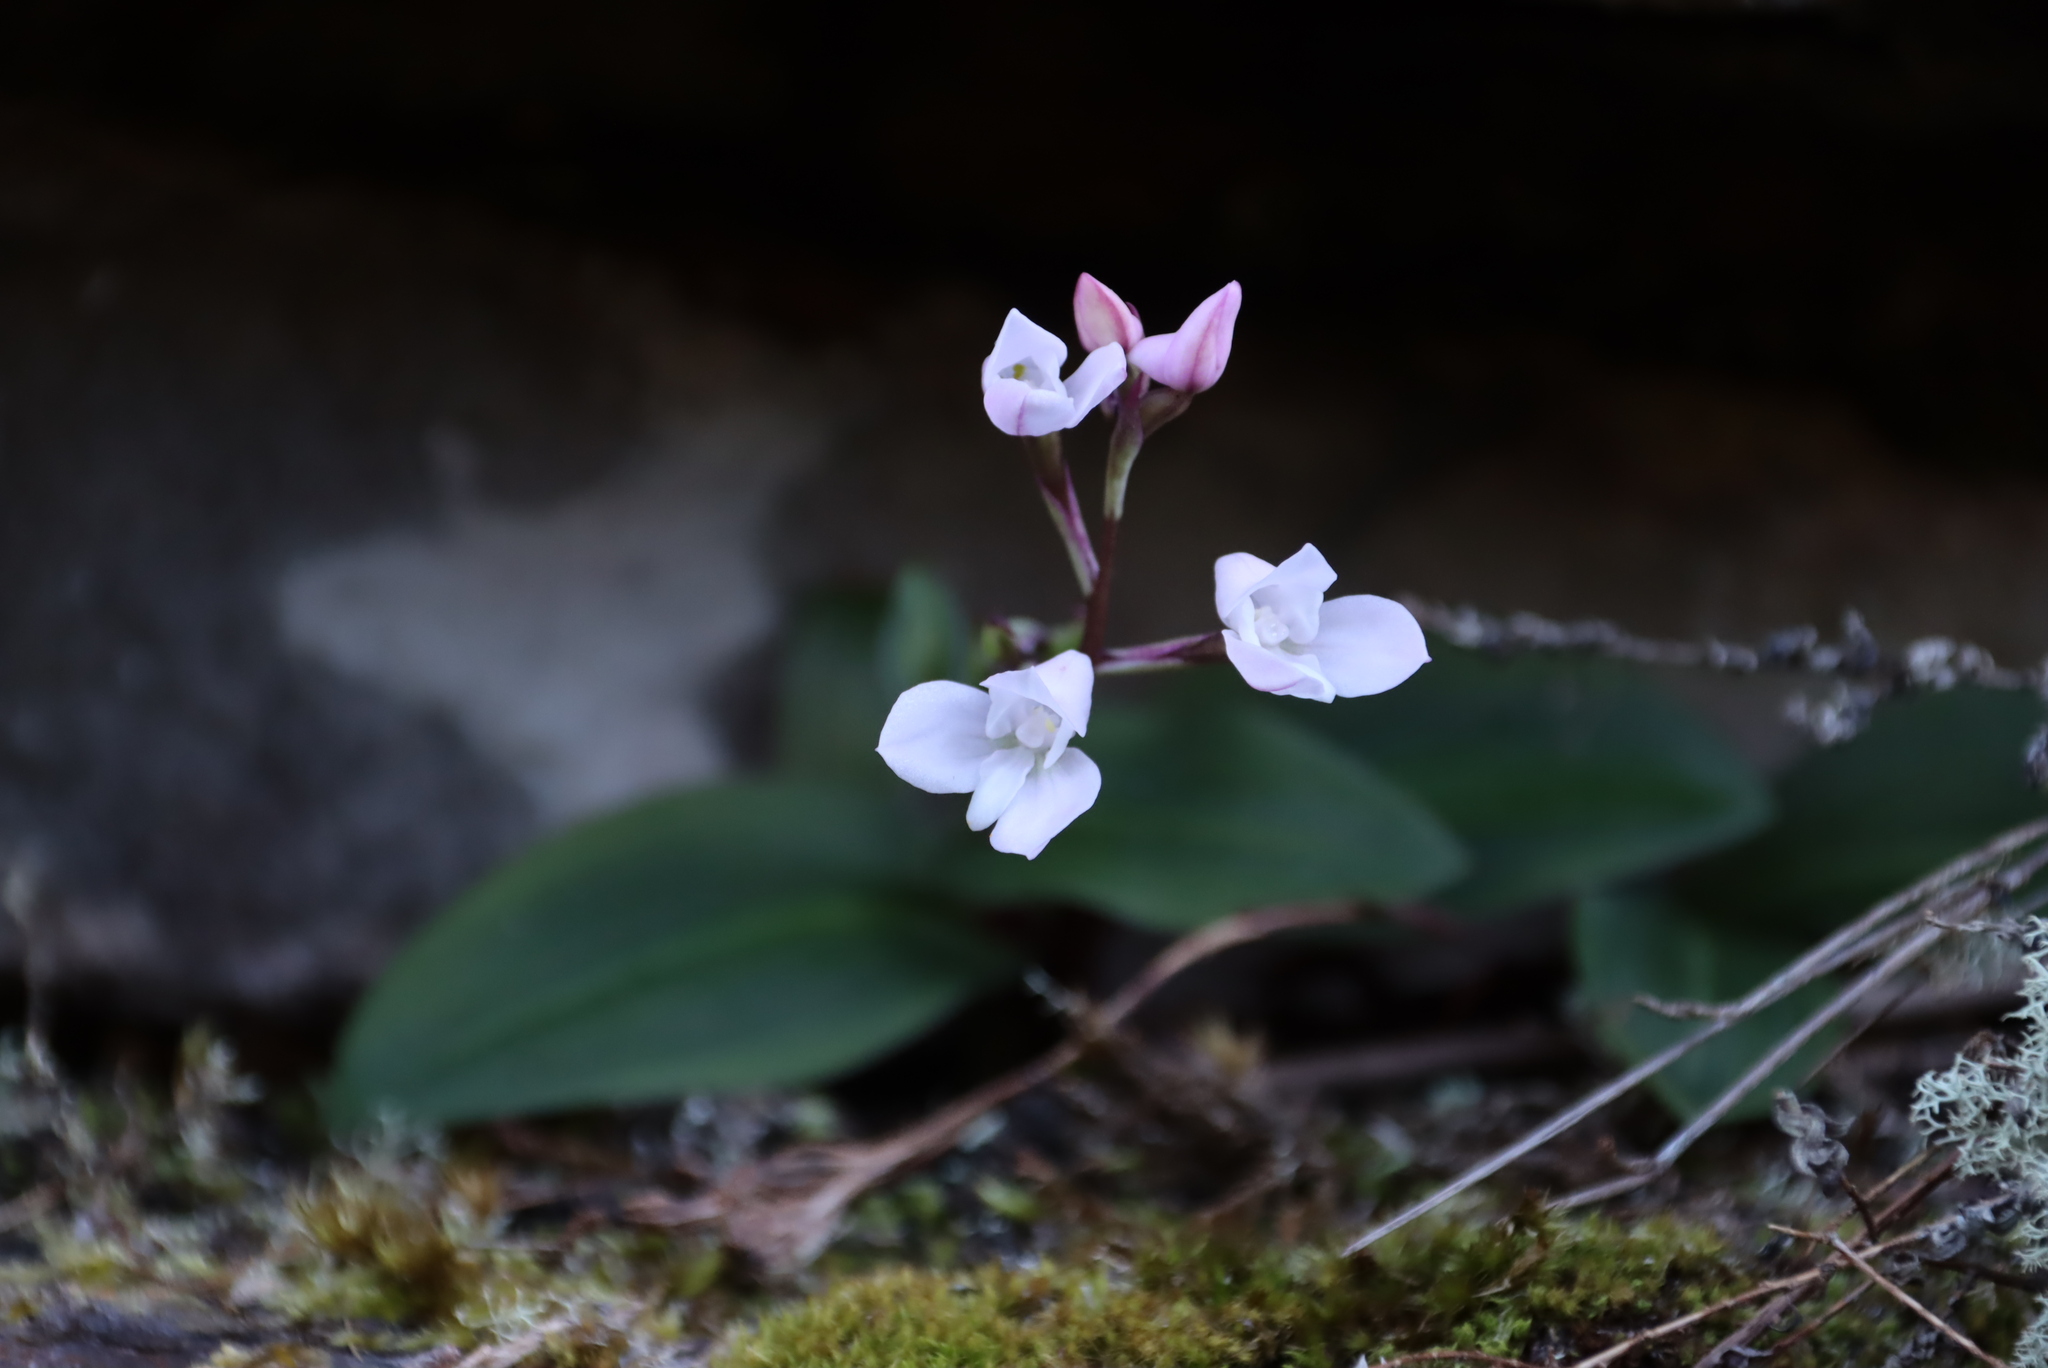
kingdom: Plantae
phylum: Tracheophyta
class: Liliopsida
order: Asparagales
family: Orchidaceae
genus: Disa
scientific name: Disa rosea
